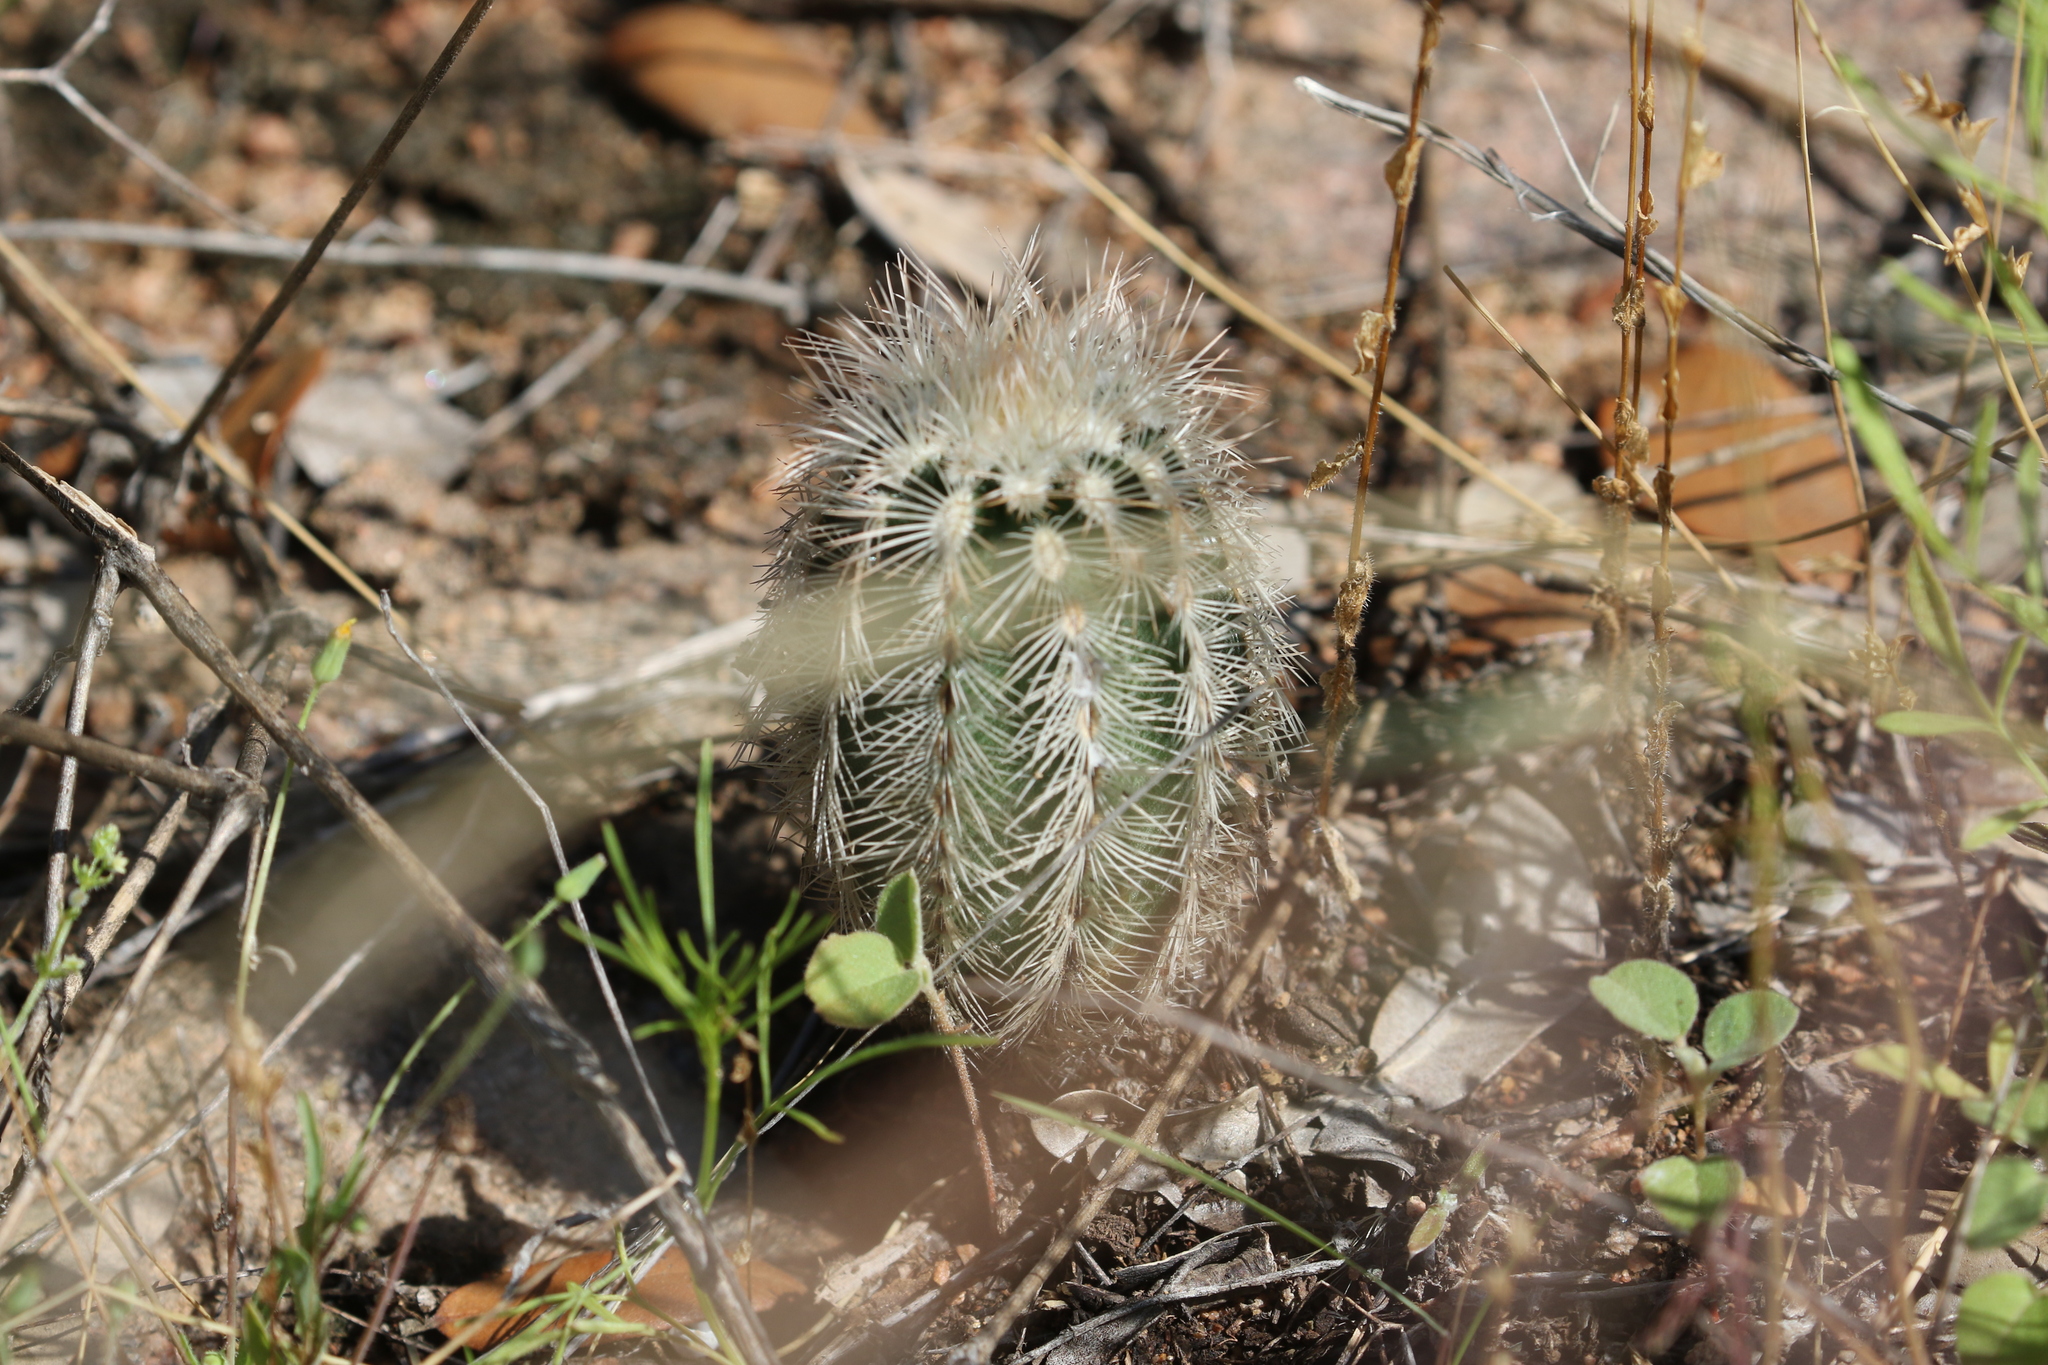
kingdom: Plantae
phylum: Tracheophyta
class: Magnoliopsida
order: Caryophyllales
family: Cactaceae
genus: Echinocereus
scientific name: Echinocereus reichenbachii
